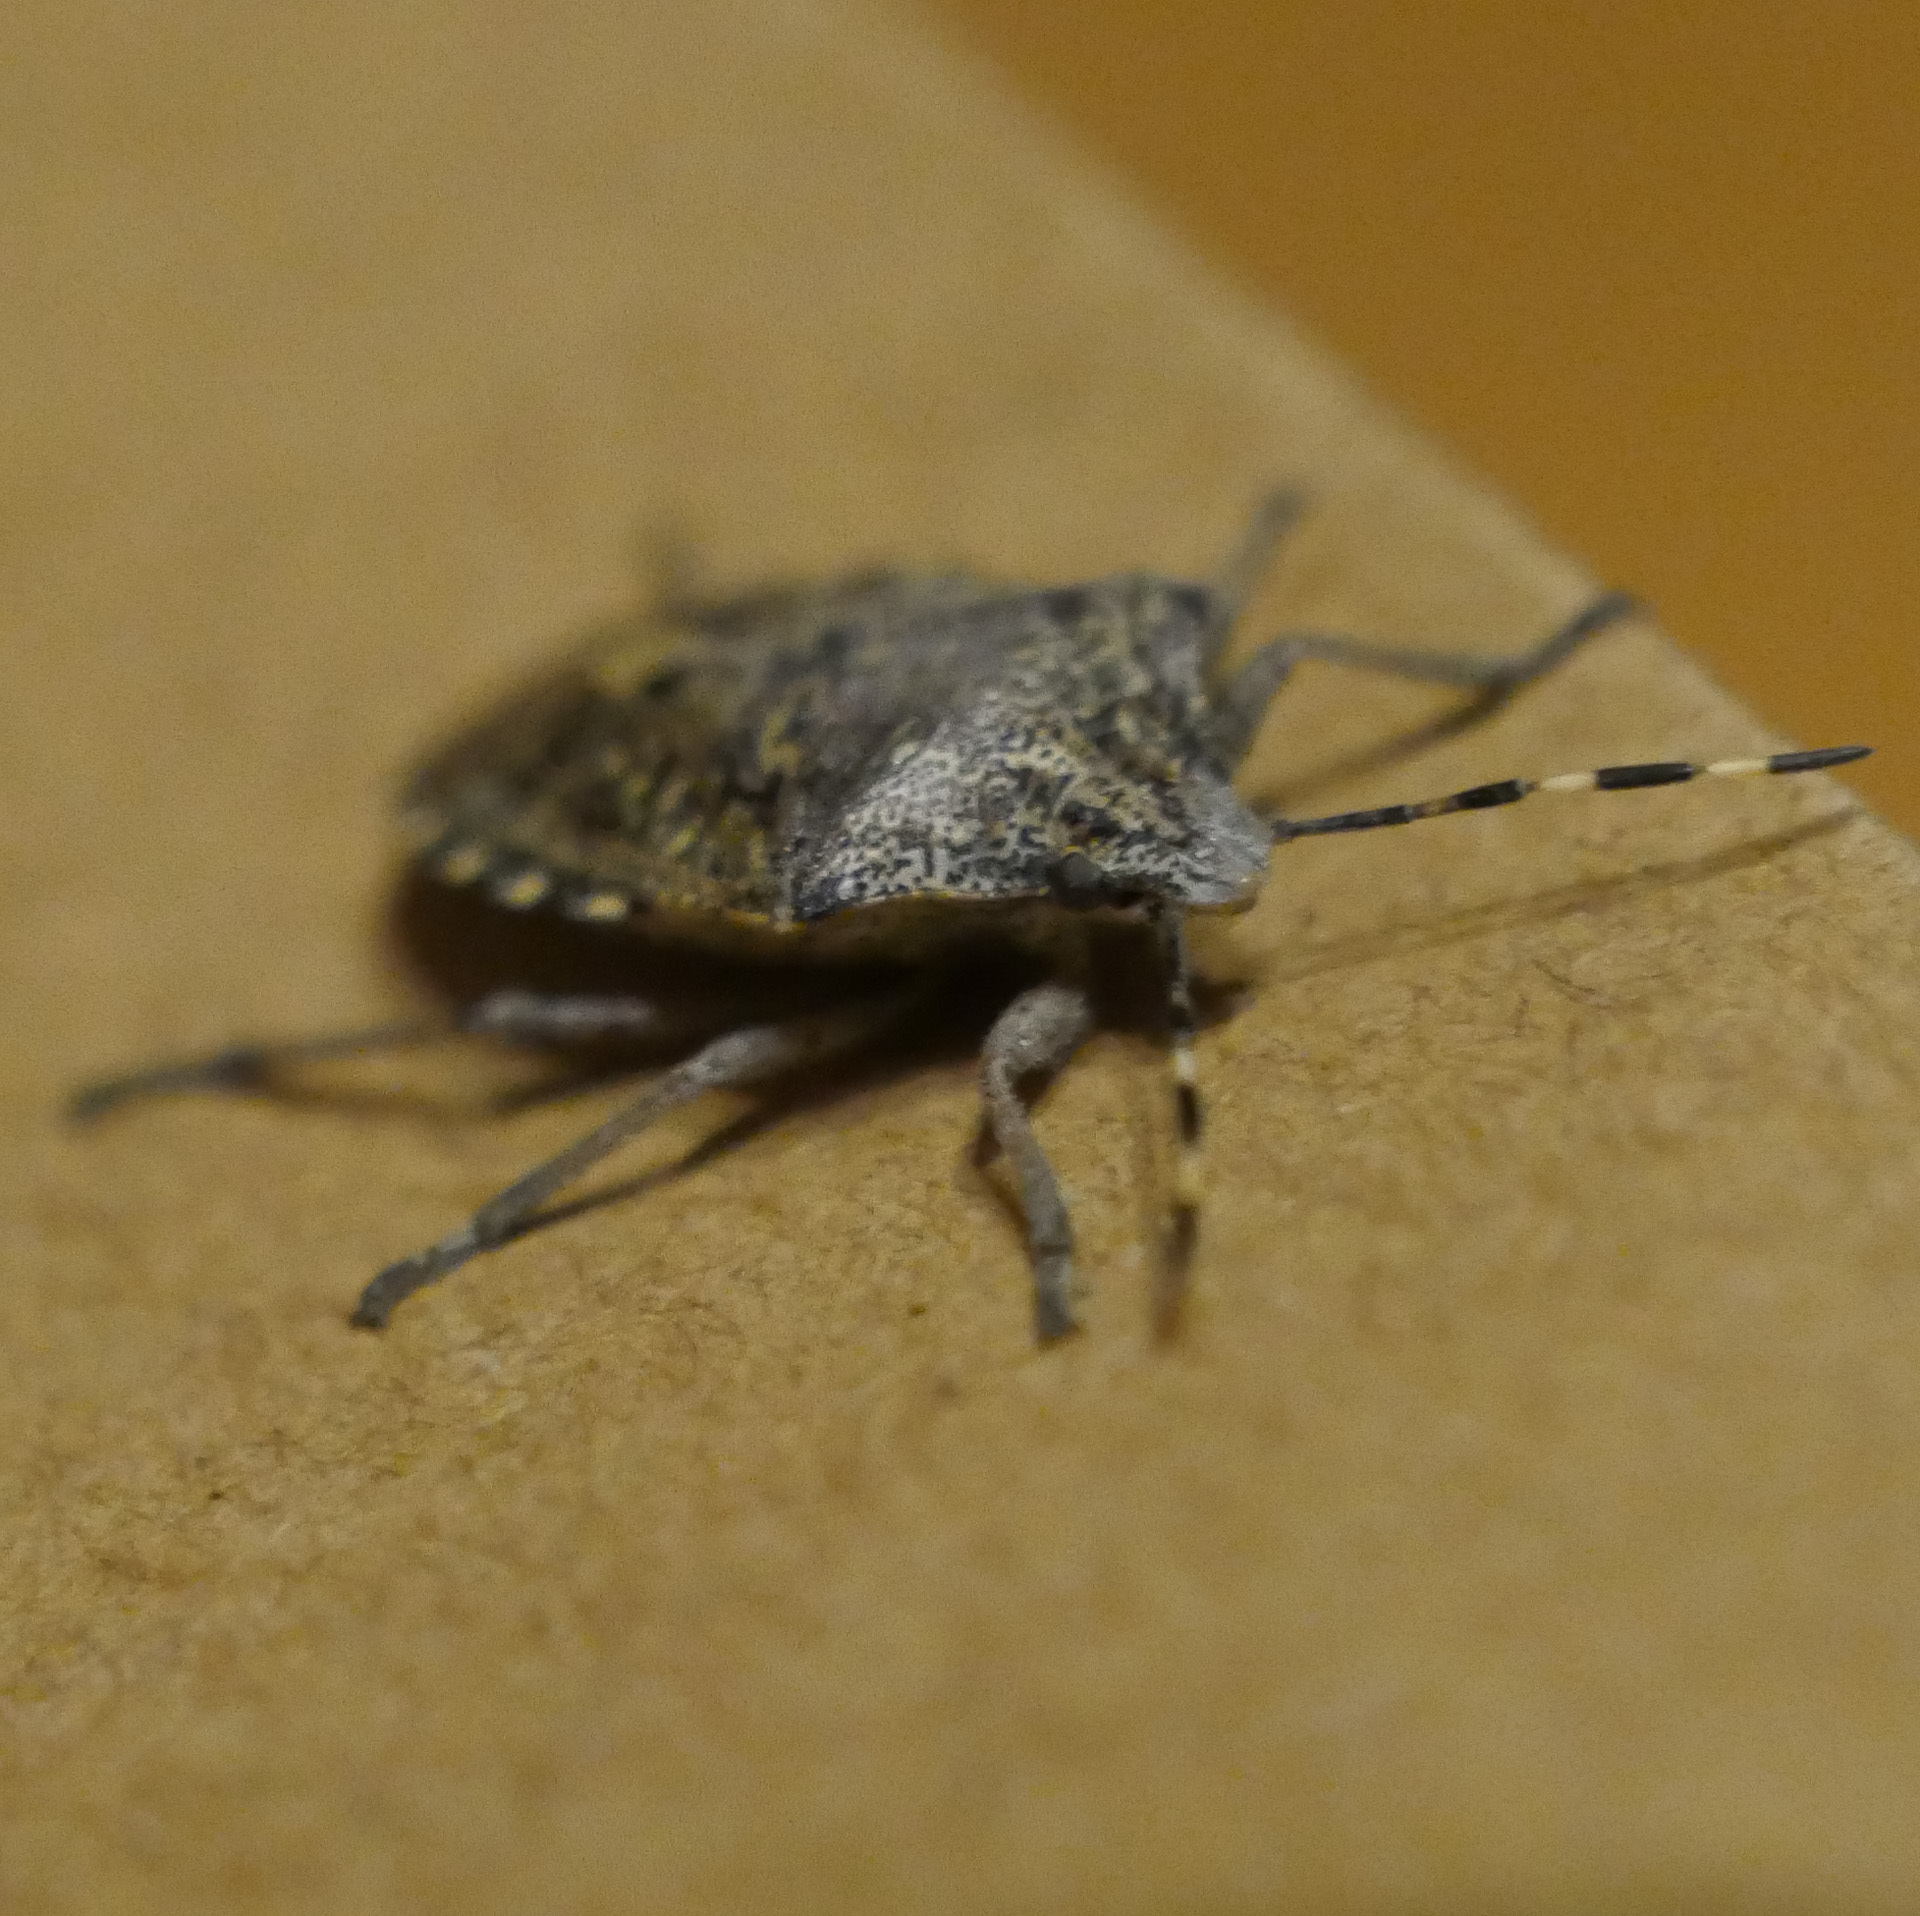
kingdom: Animalia
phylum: Arthropoda
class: Insecta
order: Hemiptera
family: Pentatomidae
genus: Rhaphigaster
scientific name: Rhaphigaster nebulosa
